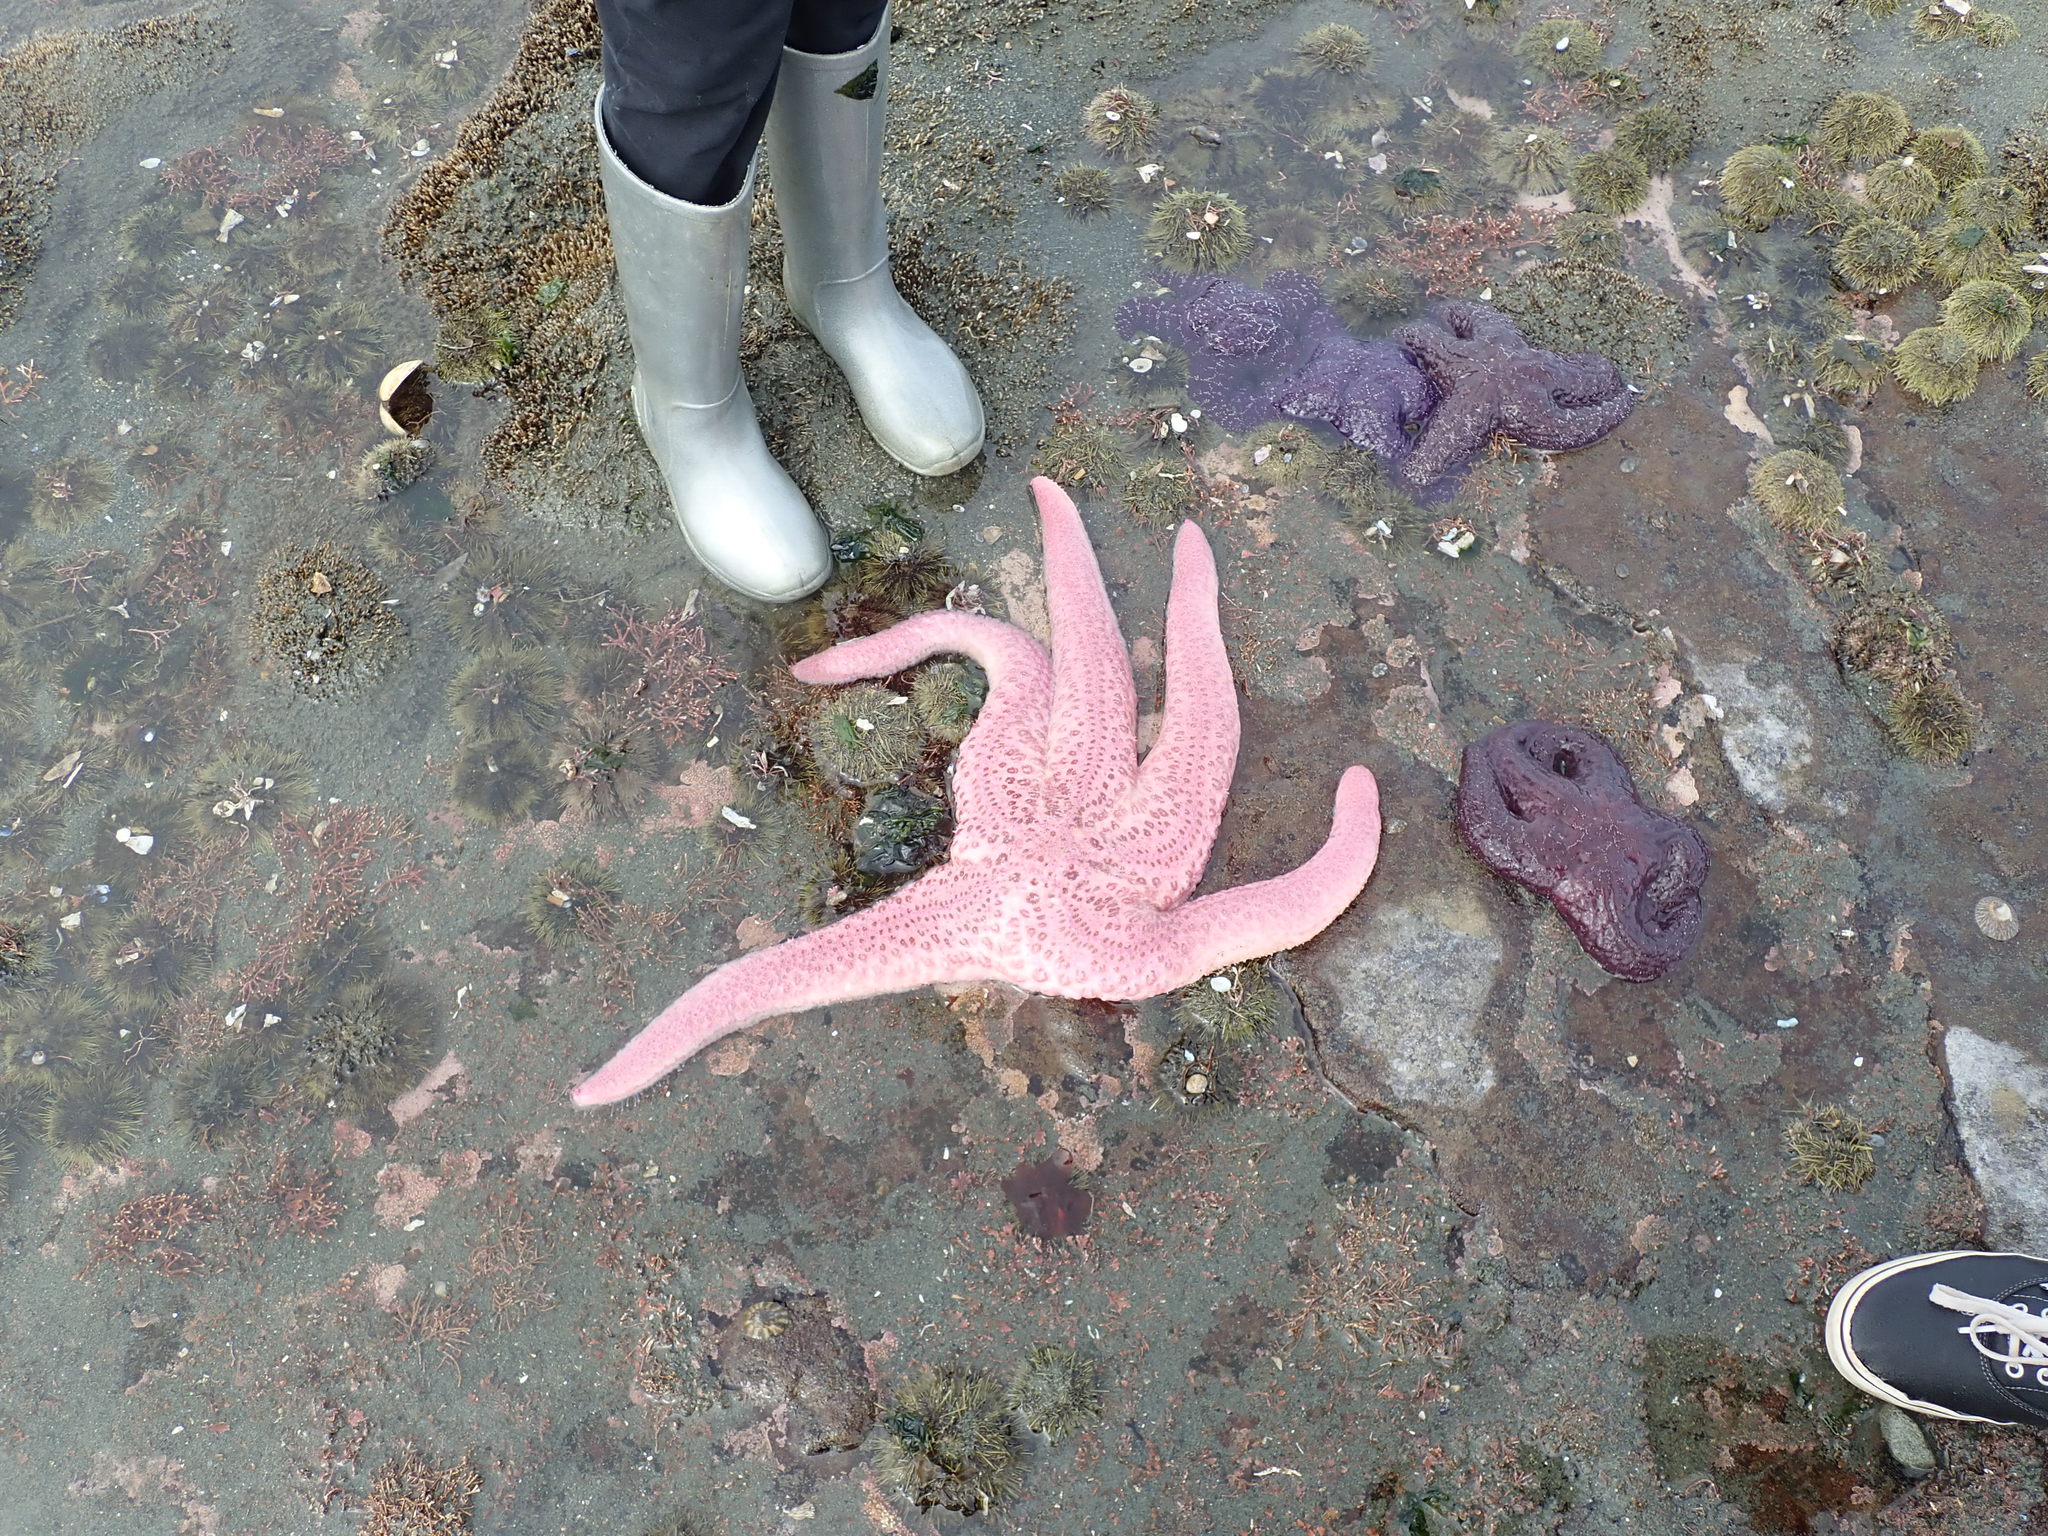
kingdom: Animalia
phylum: Echinodermata
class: Asteroidea
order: Forcipulatida
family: Asteriidae
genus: Pisaster
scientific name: Pisaster brevispinus
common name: Pink stars
